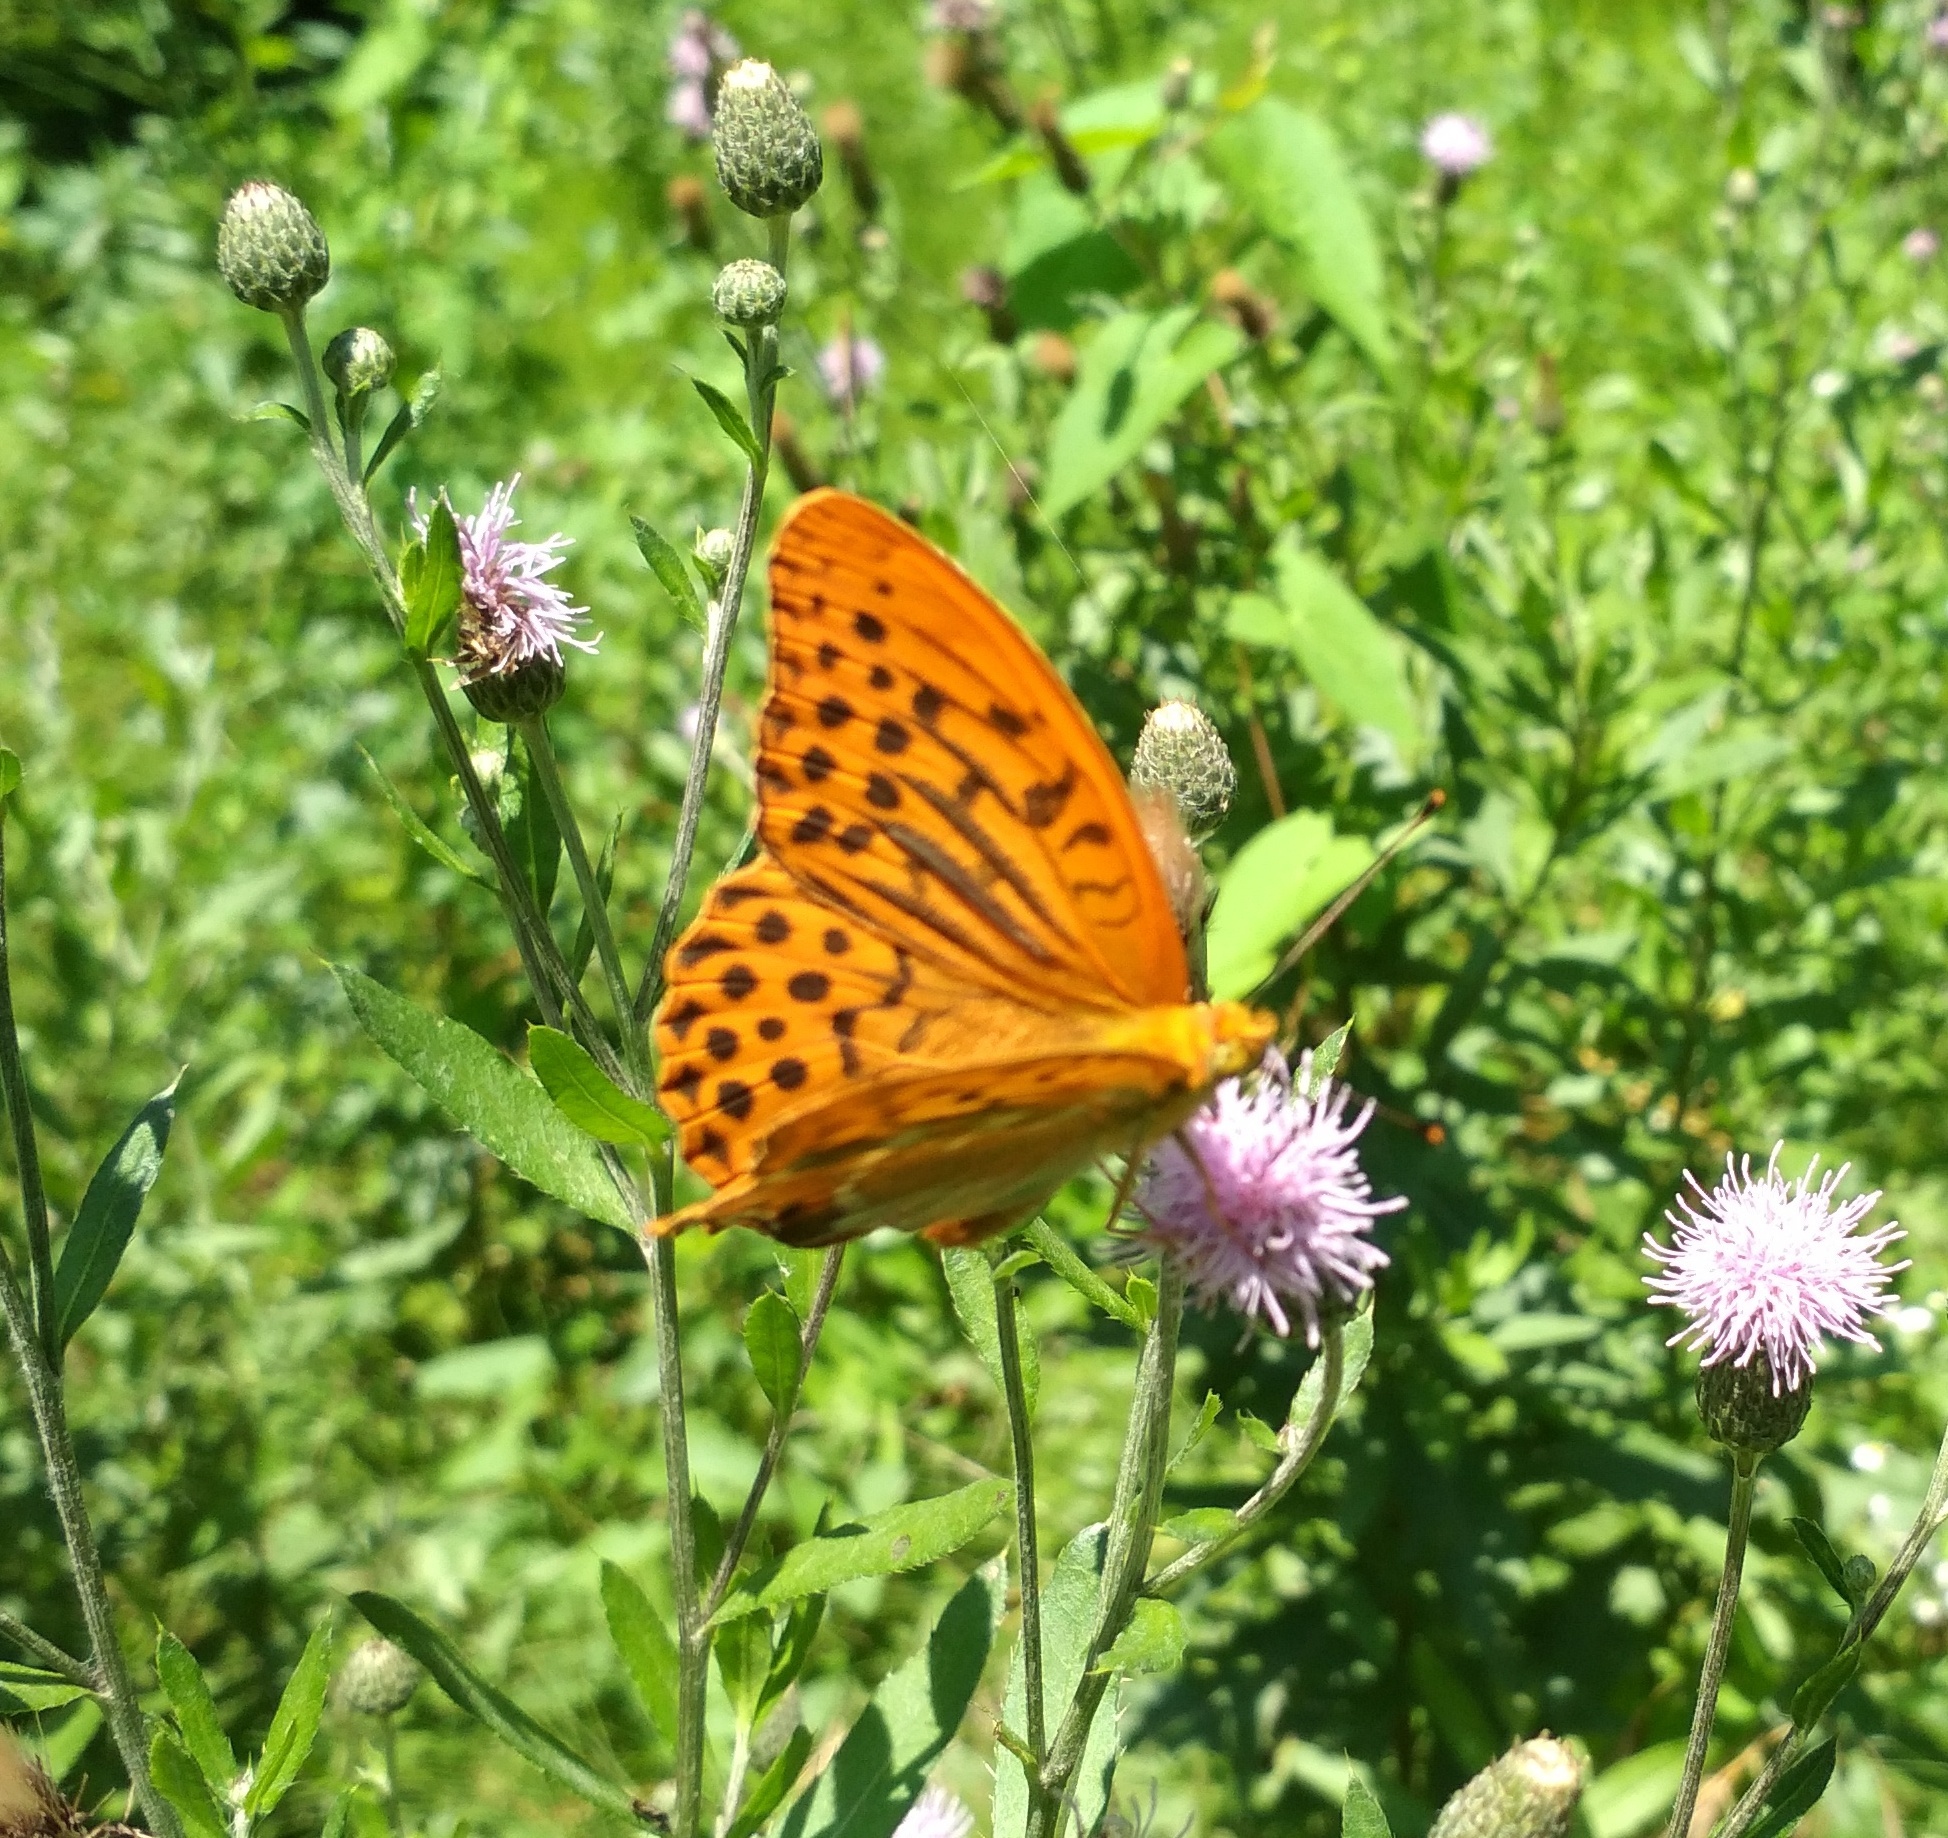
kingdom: Animalia
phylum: Arthropoda
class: Insecta
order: Lepidoptera
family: Nymphalidae
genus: Argynnis
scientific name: Argynnis paphia
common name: Silver-washed fritillary
